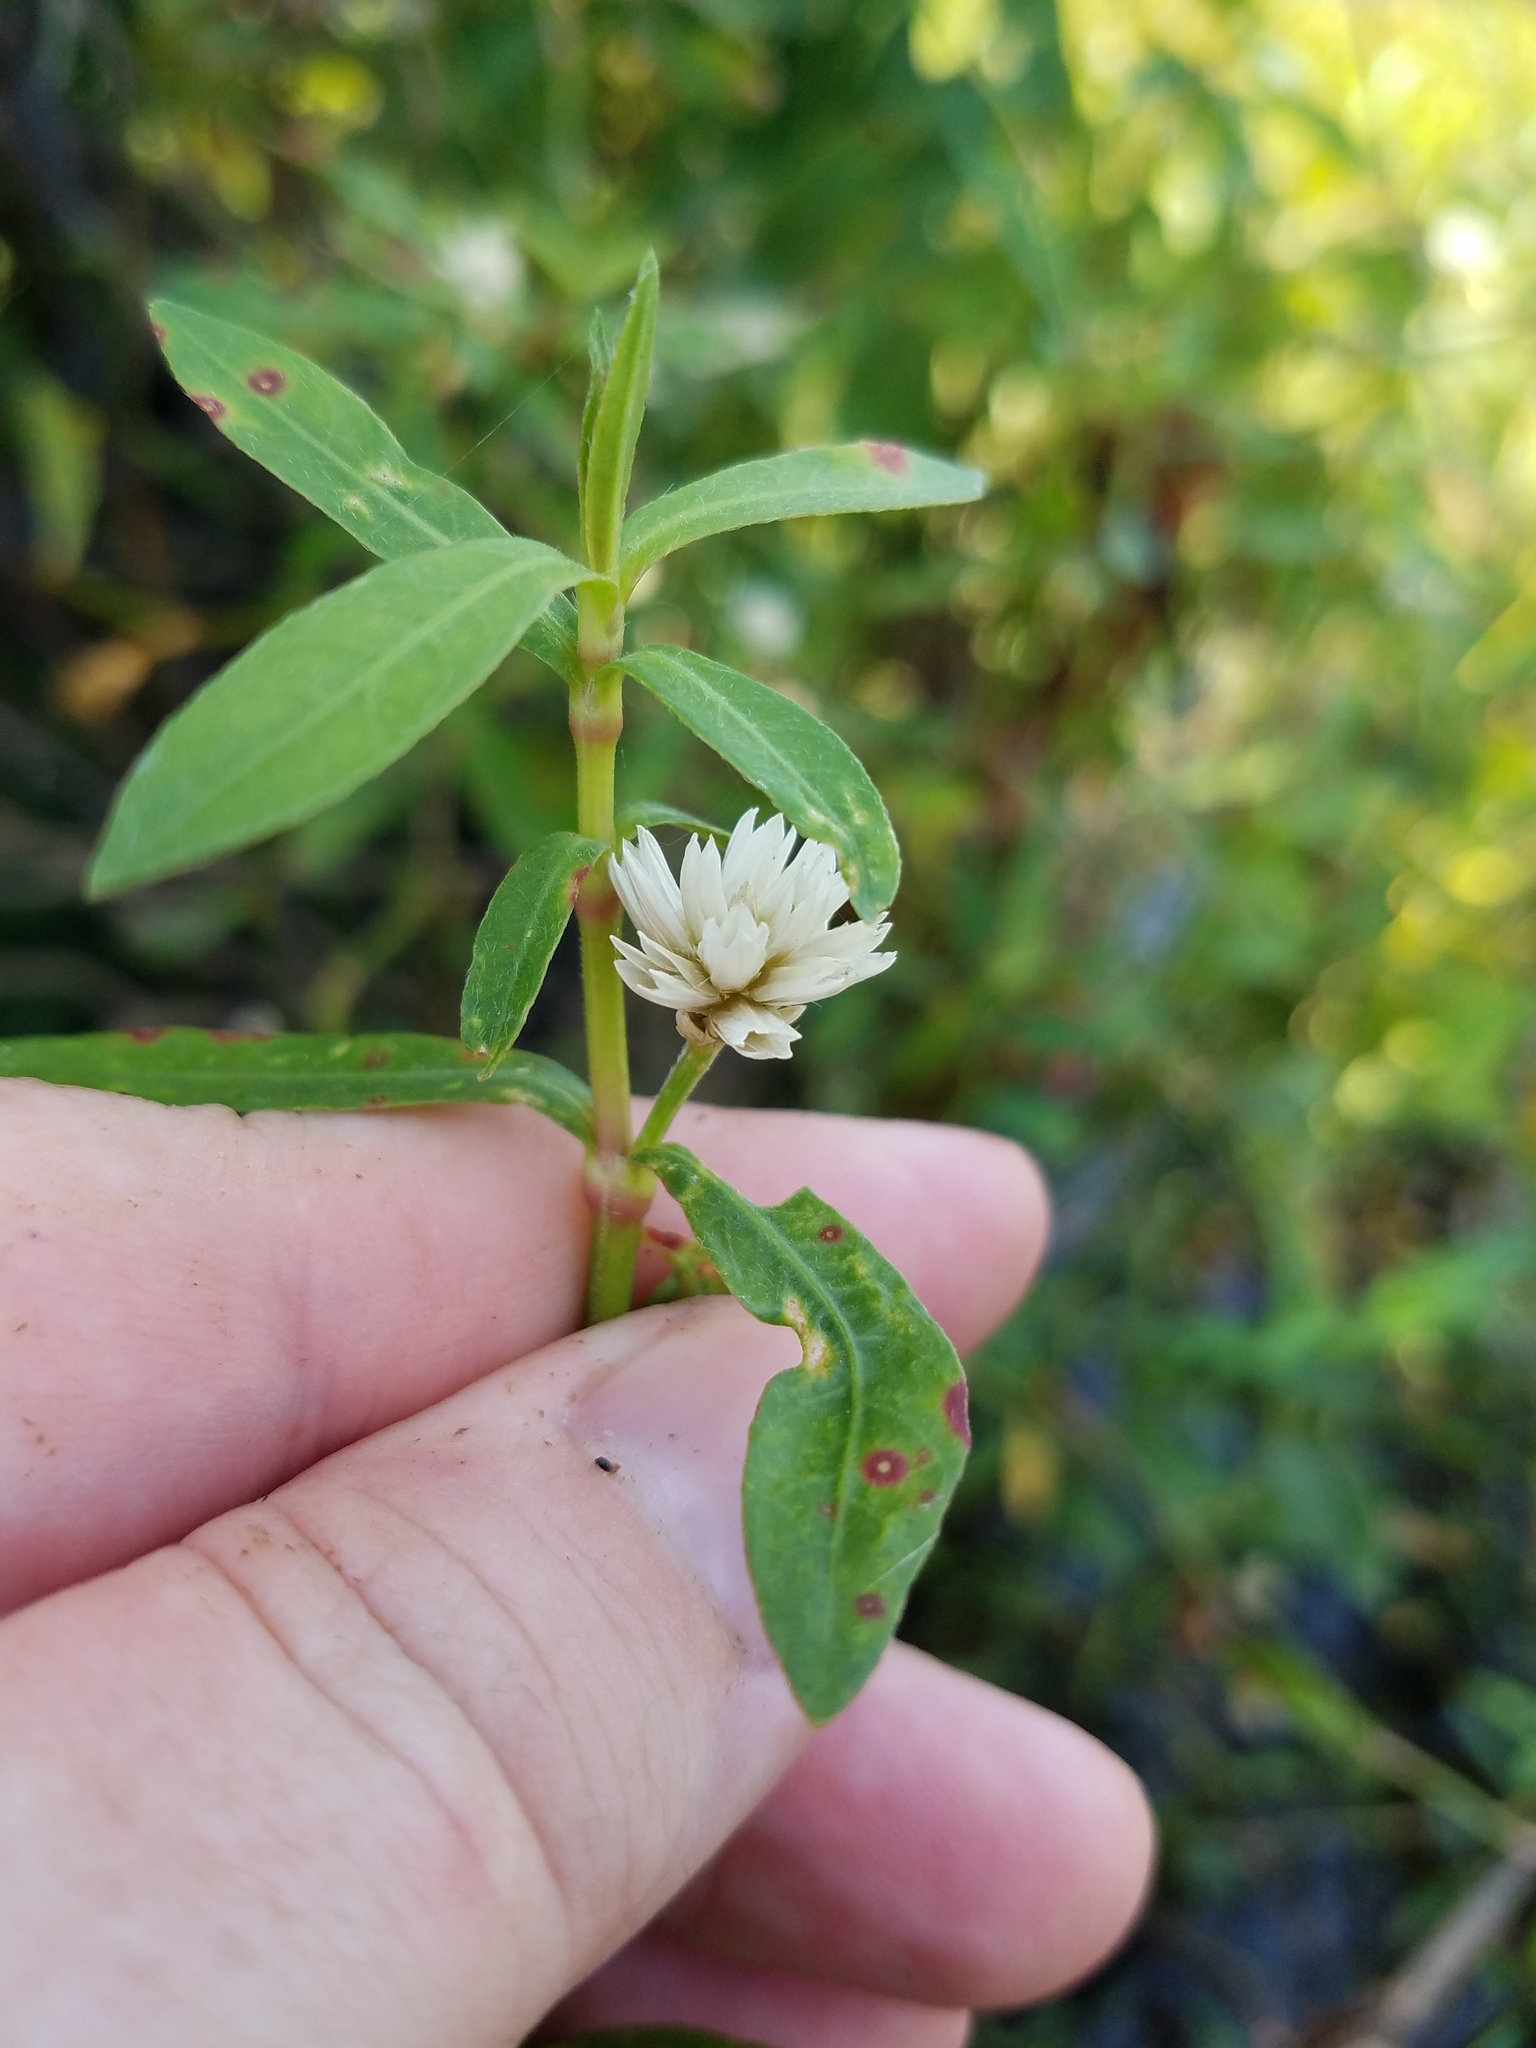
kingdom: Plantae
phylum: Tracheophyta
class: Magnoliopsida
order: Caryophyllales
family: Amaranthaceae
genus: Alternanthera
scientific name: Alternanthera philoxeroides
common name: Alligatorweed
